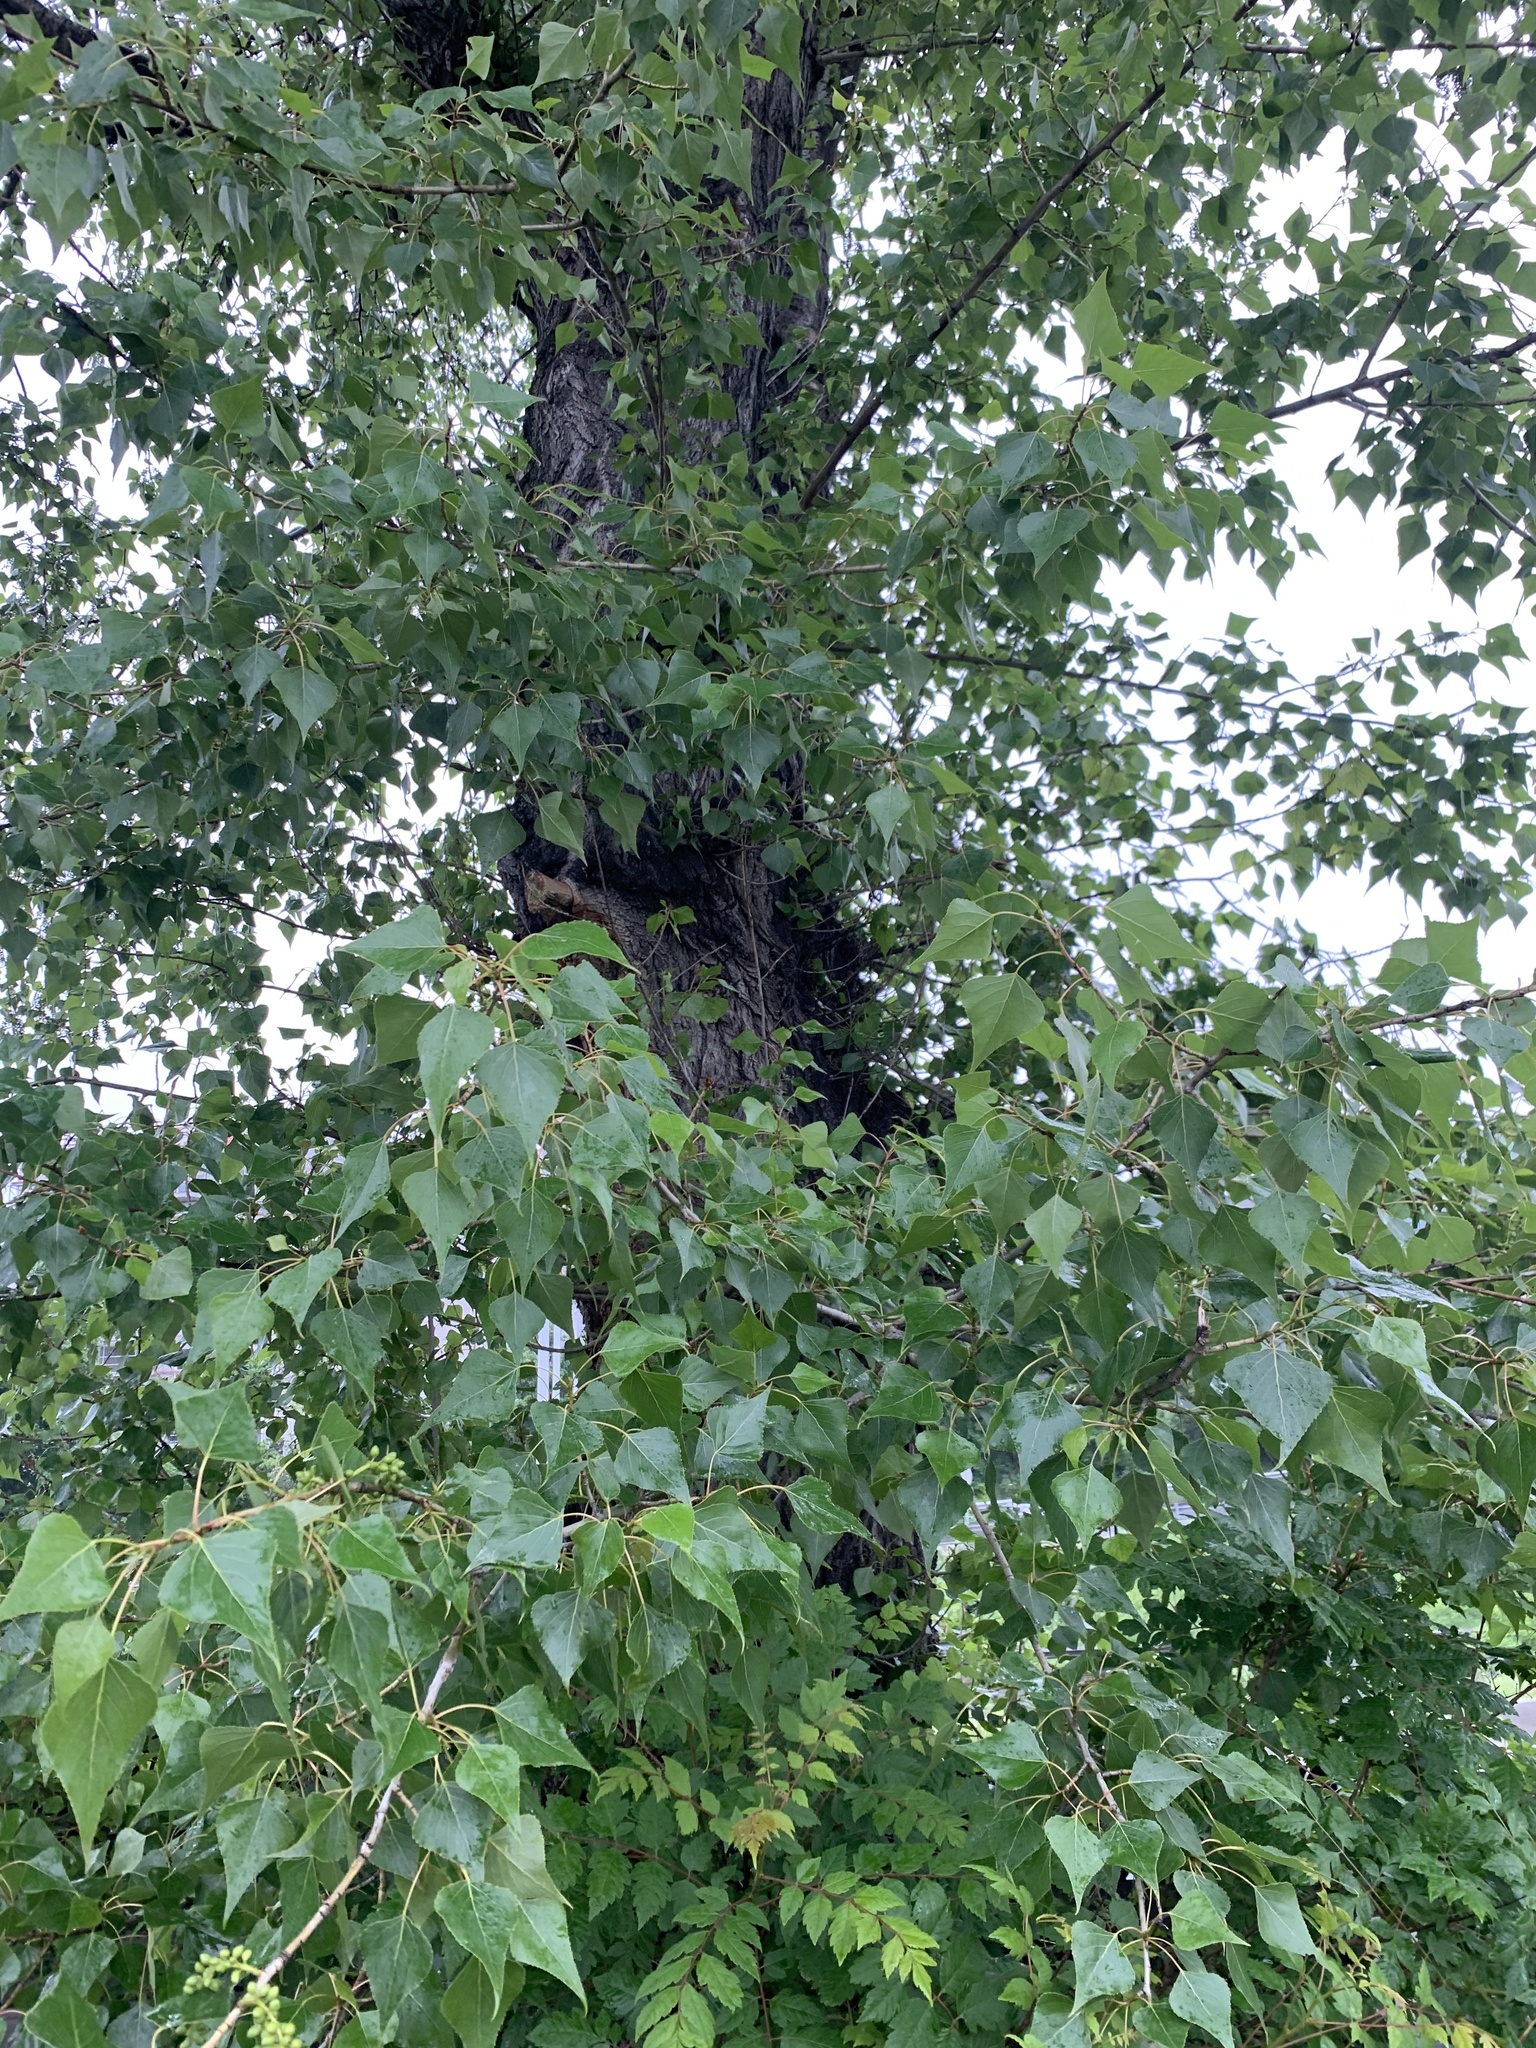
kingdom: Plantae
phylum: Tracheophyta
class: Magnoliopsida
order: Malpighiales
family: Salicaceae
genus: Populus
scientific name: Populus nigra
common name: Black poplar
